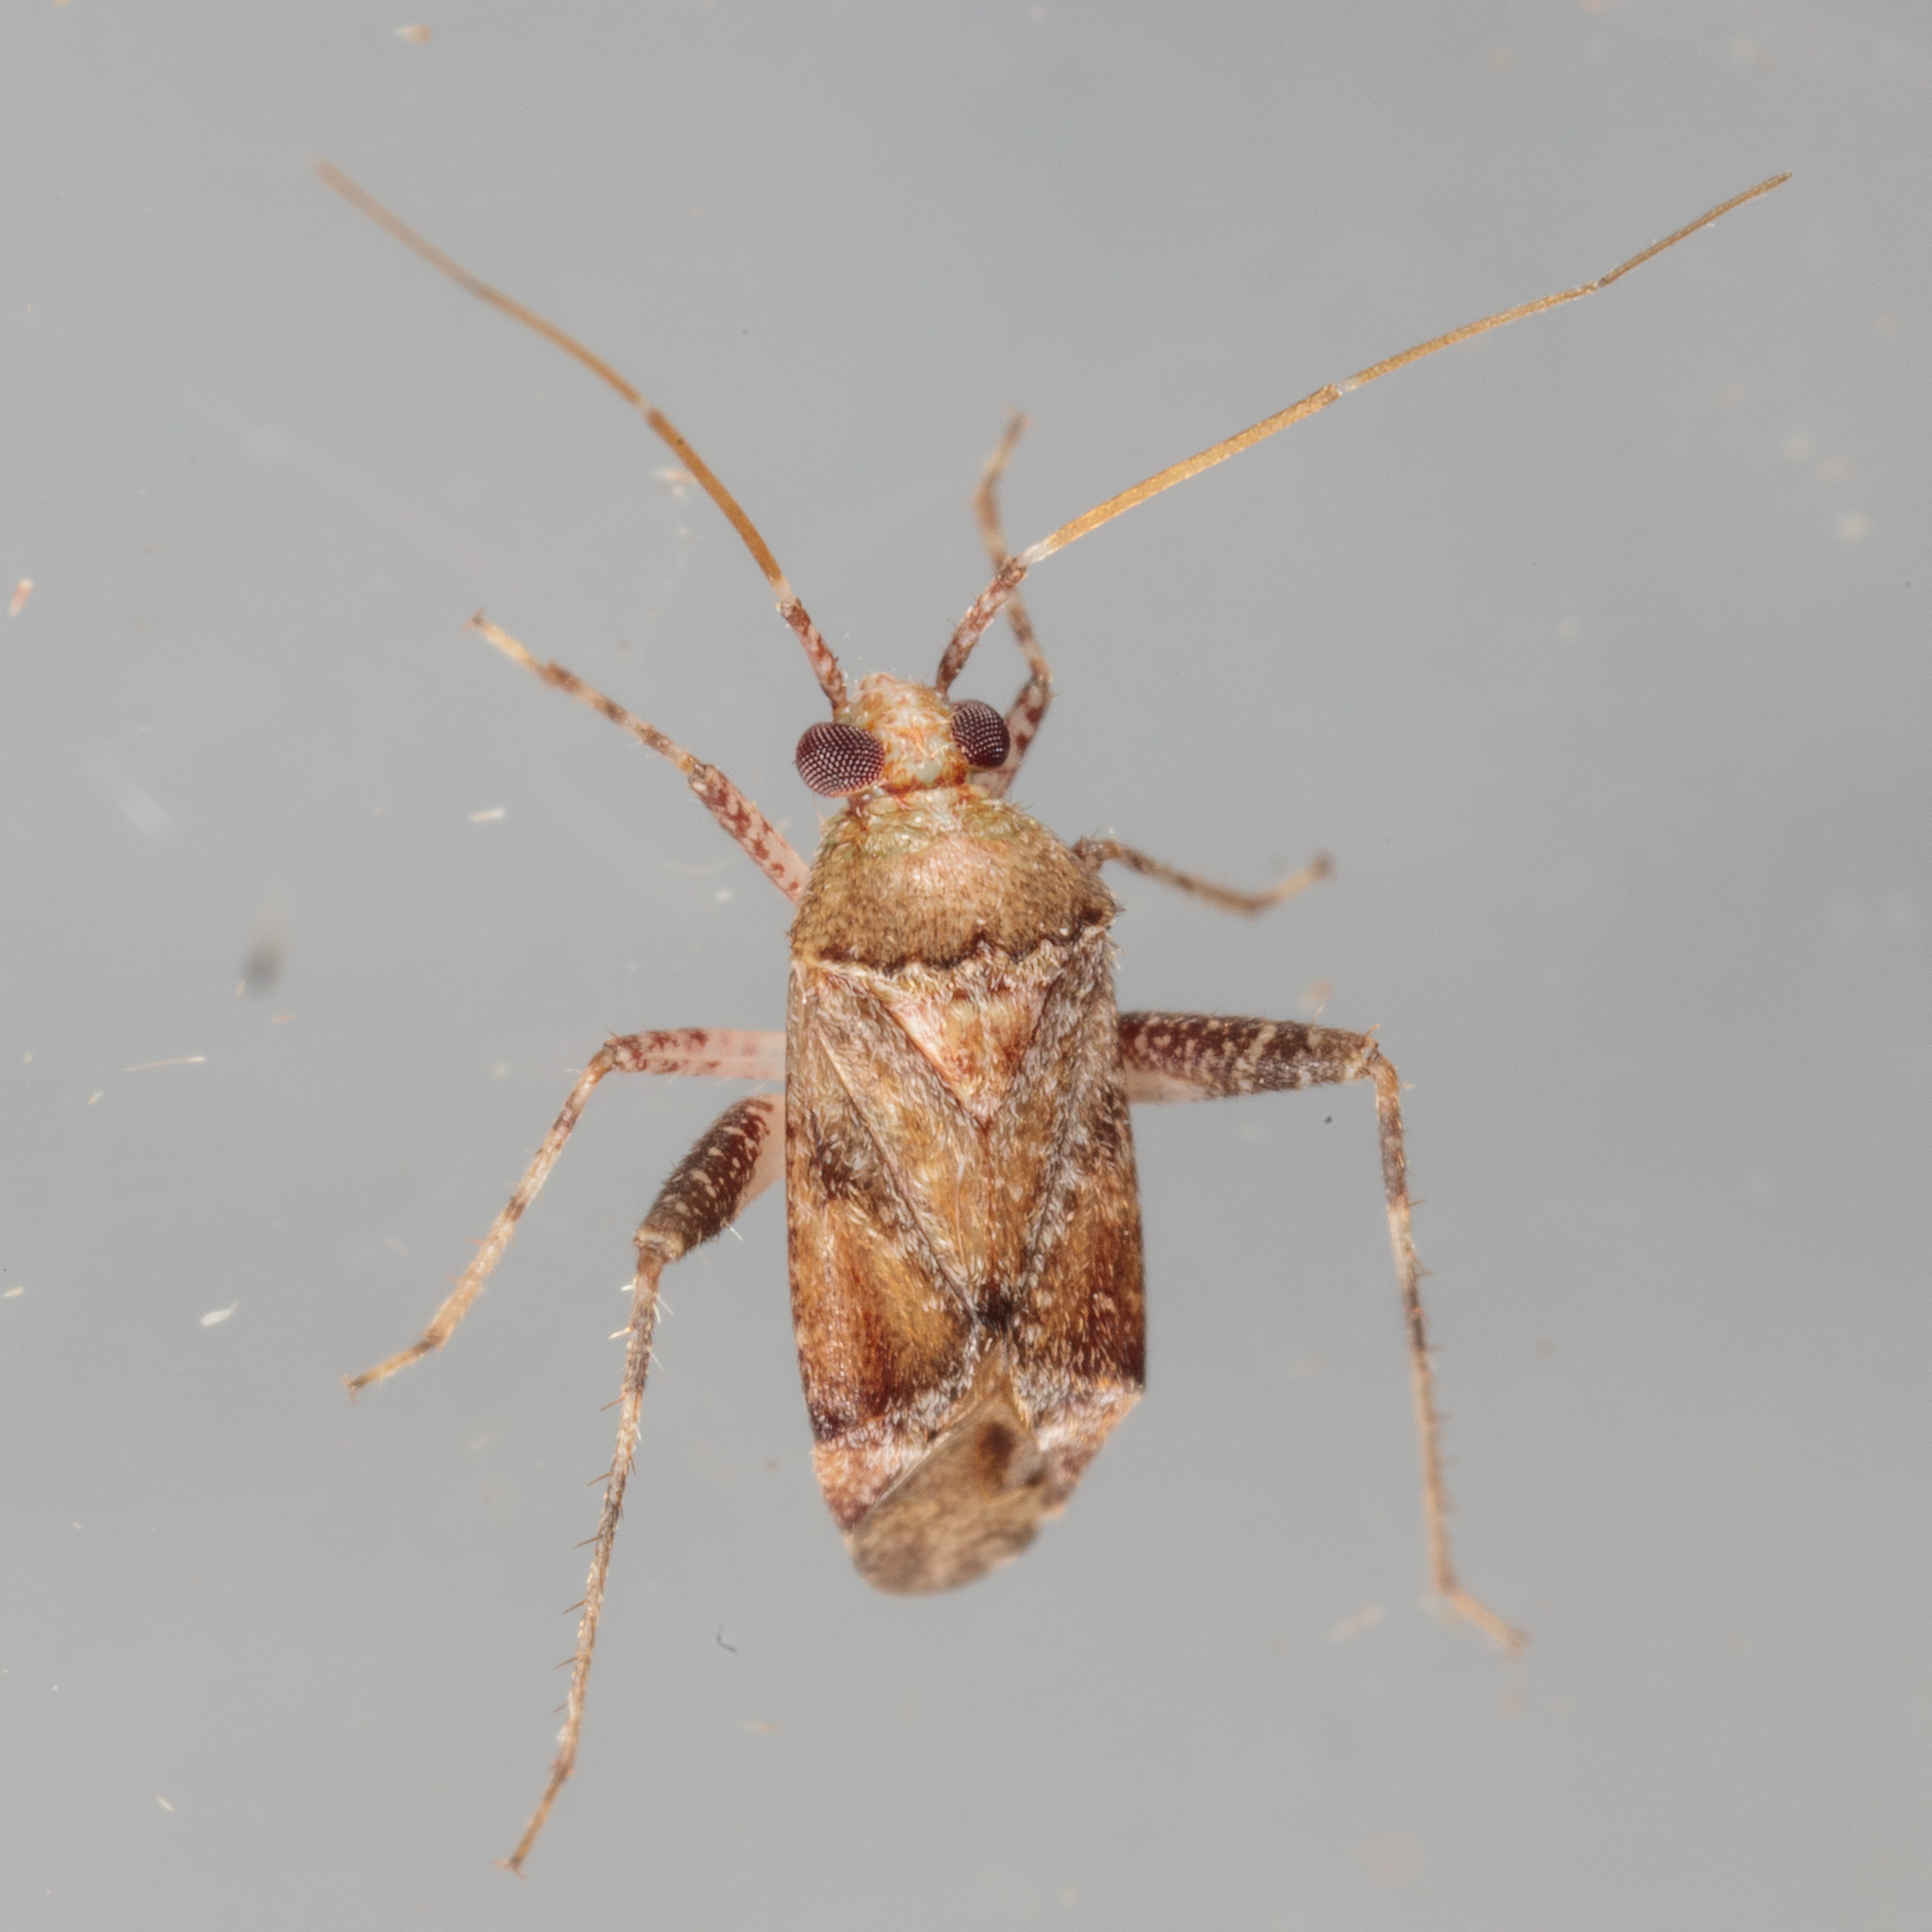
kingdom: Animalia
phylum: Arthropoda
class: Insecta
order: Hemiptera
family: Miridae
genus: Phytocoris
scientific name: Phytocoris breviusculus
